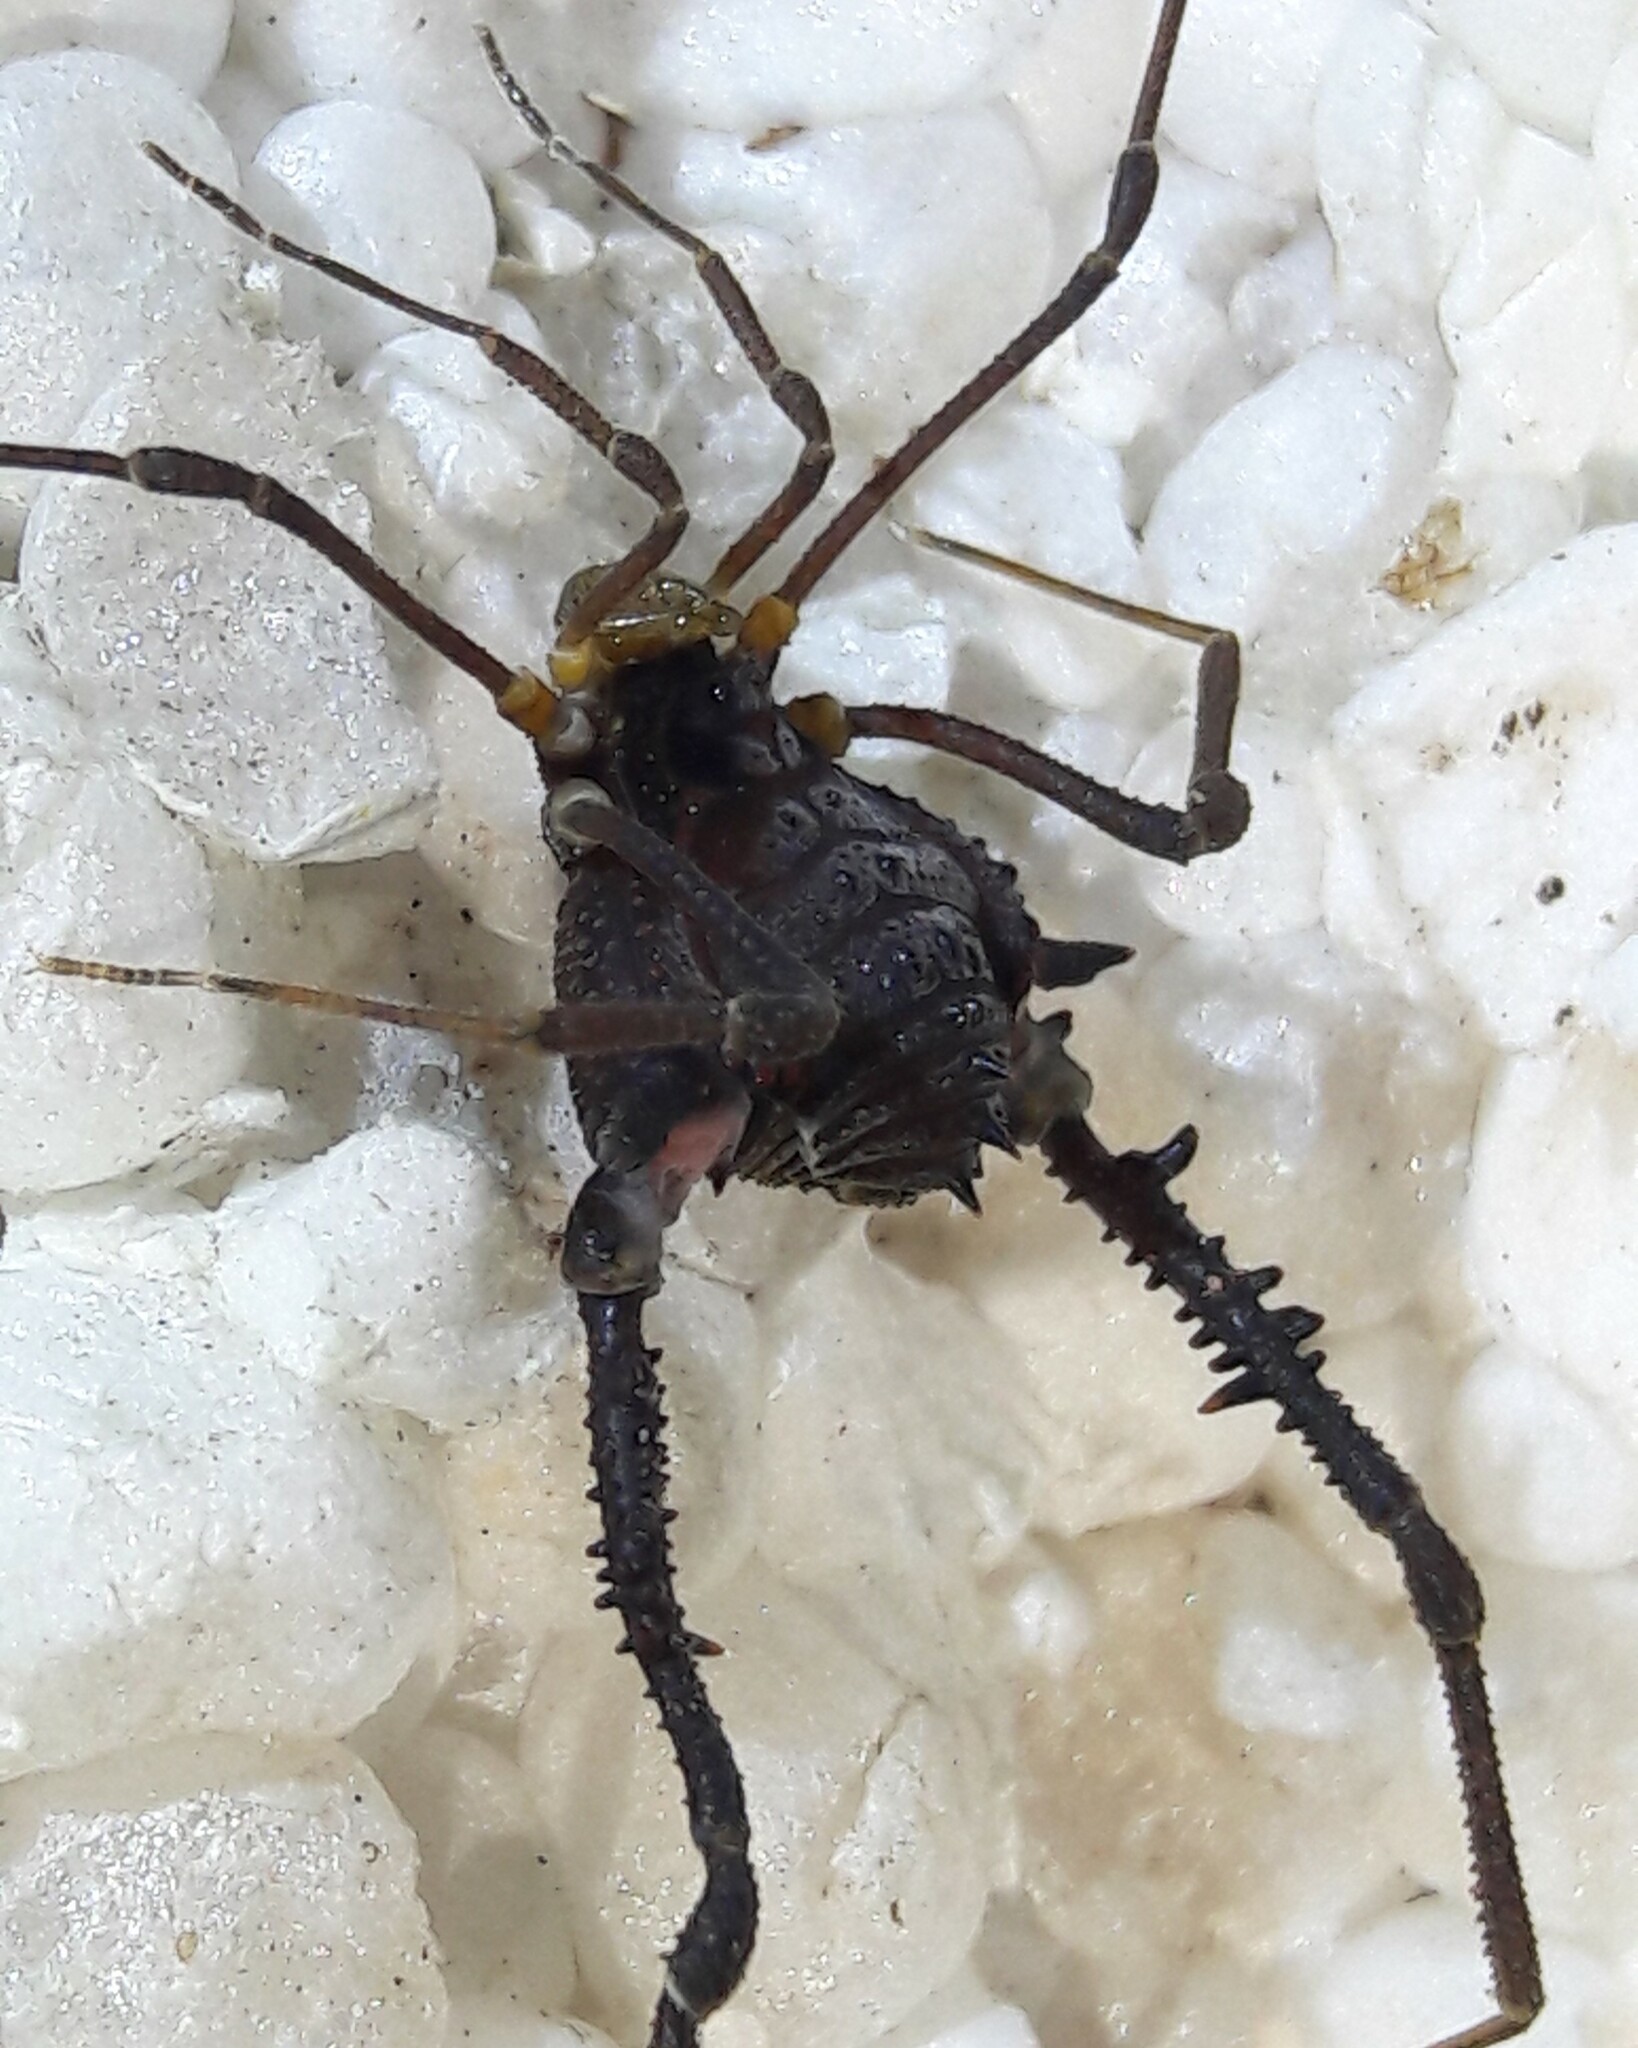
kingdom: Animalia
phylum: Arthropoda
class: Arachnida
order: Opiliones
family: Gonyleptidae
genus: Mischonyx
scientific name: Mischonyx squalidus
